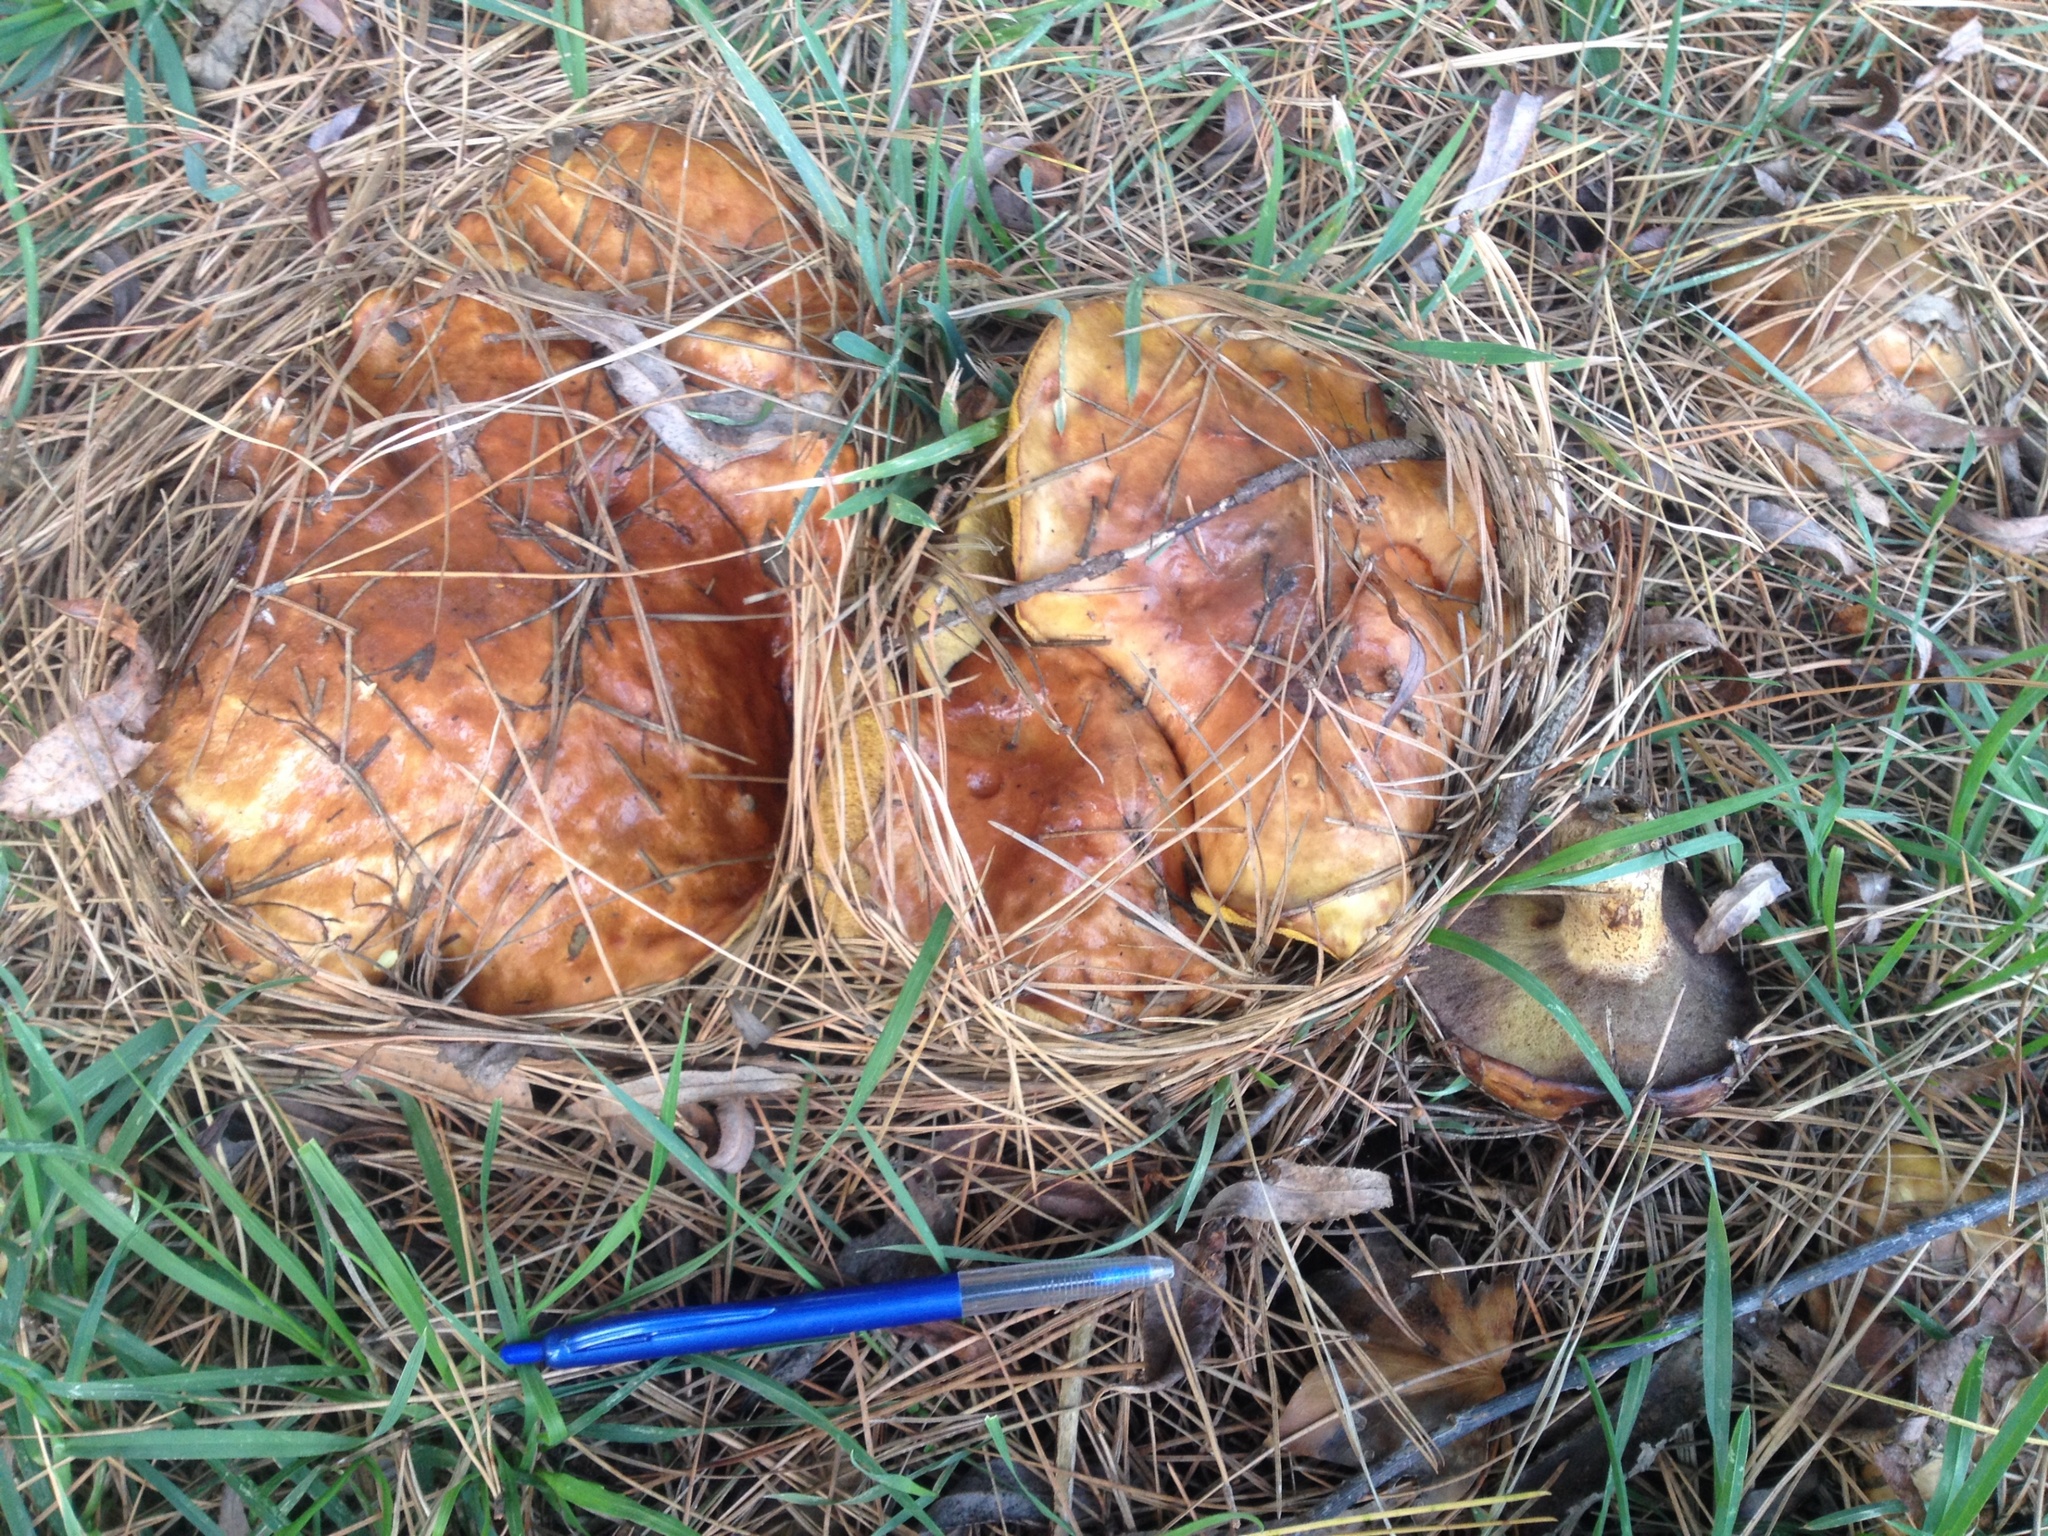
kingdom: Fungi
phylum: Basidiomycota
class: Agaricomycetes
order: Boletales
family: Suillaceae
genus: Suillus
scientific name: Suillus granulatus
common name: Weeping bolete
